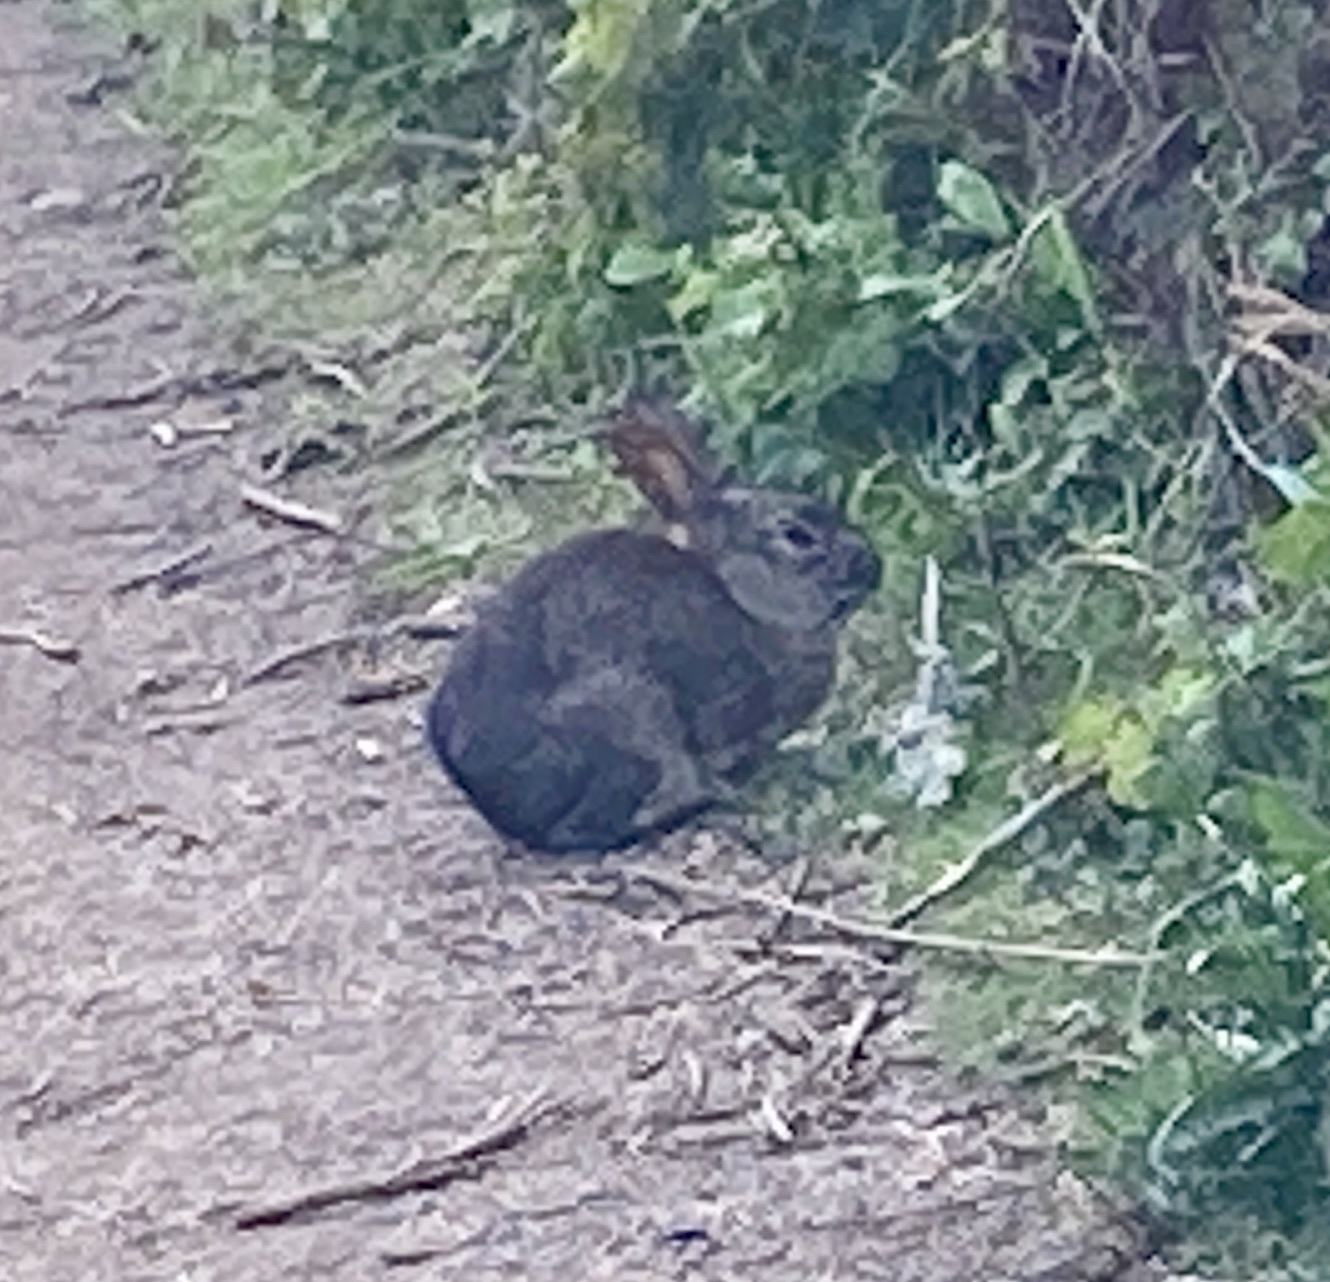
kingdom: Animalia
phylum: Chordata
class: Mammalia
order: Lagomorpha
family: Leporidae
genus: Sylvilagus
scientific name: Sylvilagus bachmani
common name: Brush rabbit
